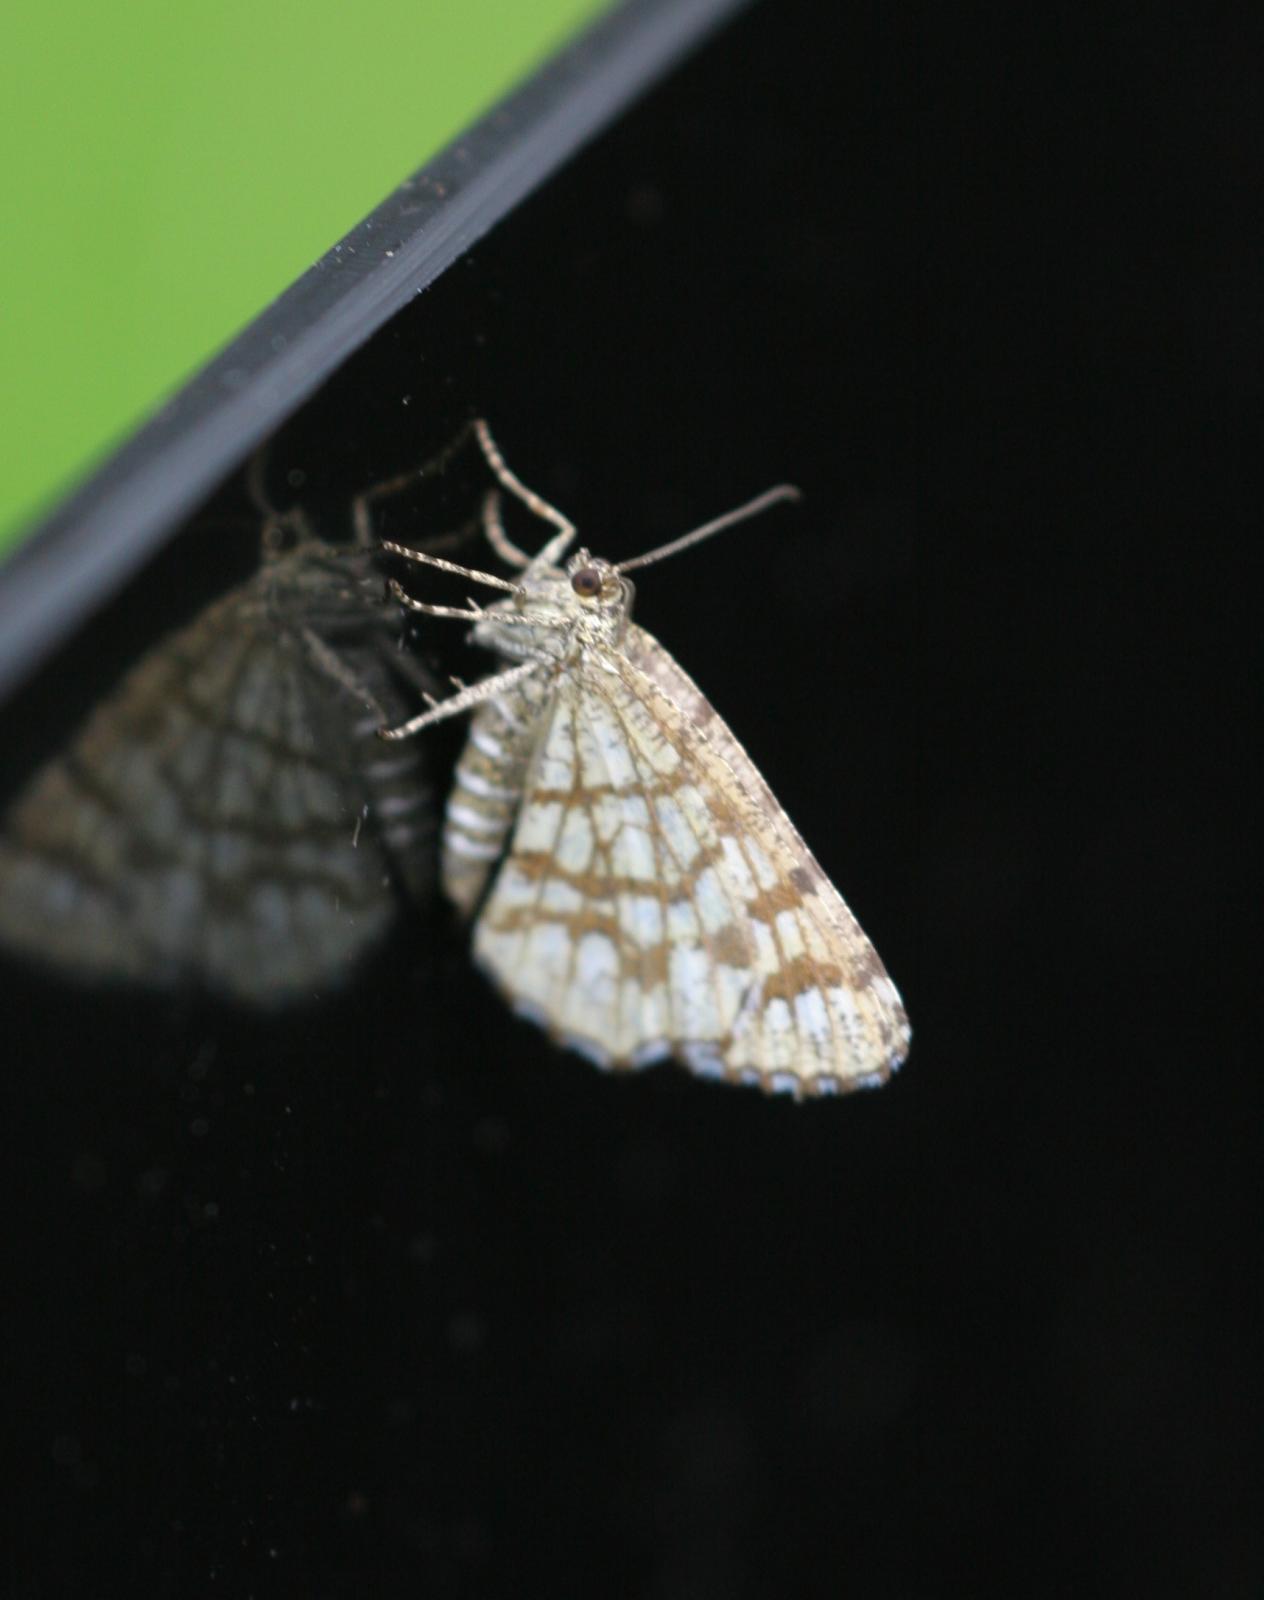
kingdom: Animalia
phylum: Arthropoda
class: Insecta
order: Lepidoptera
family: Geometridae
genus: Chiasmia
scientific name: Chiasmia clathrata
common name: Latticed heath
